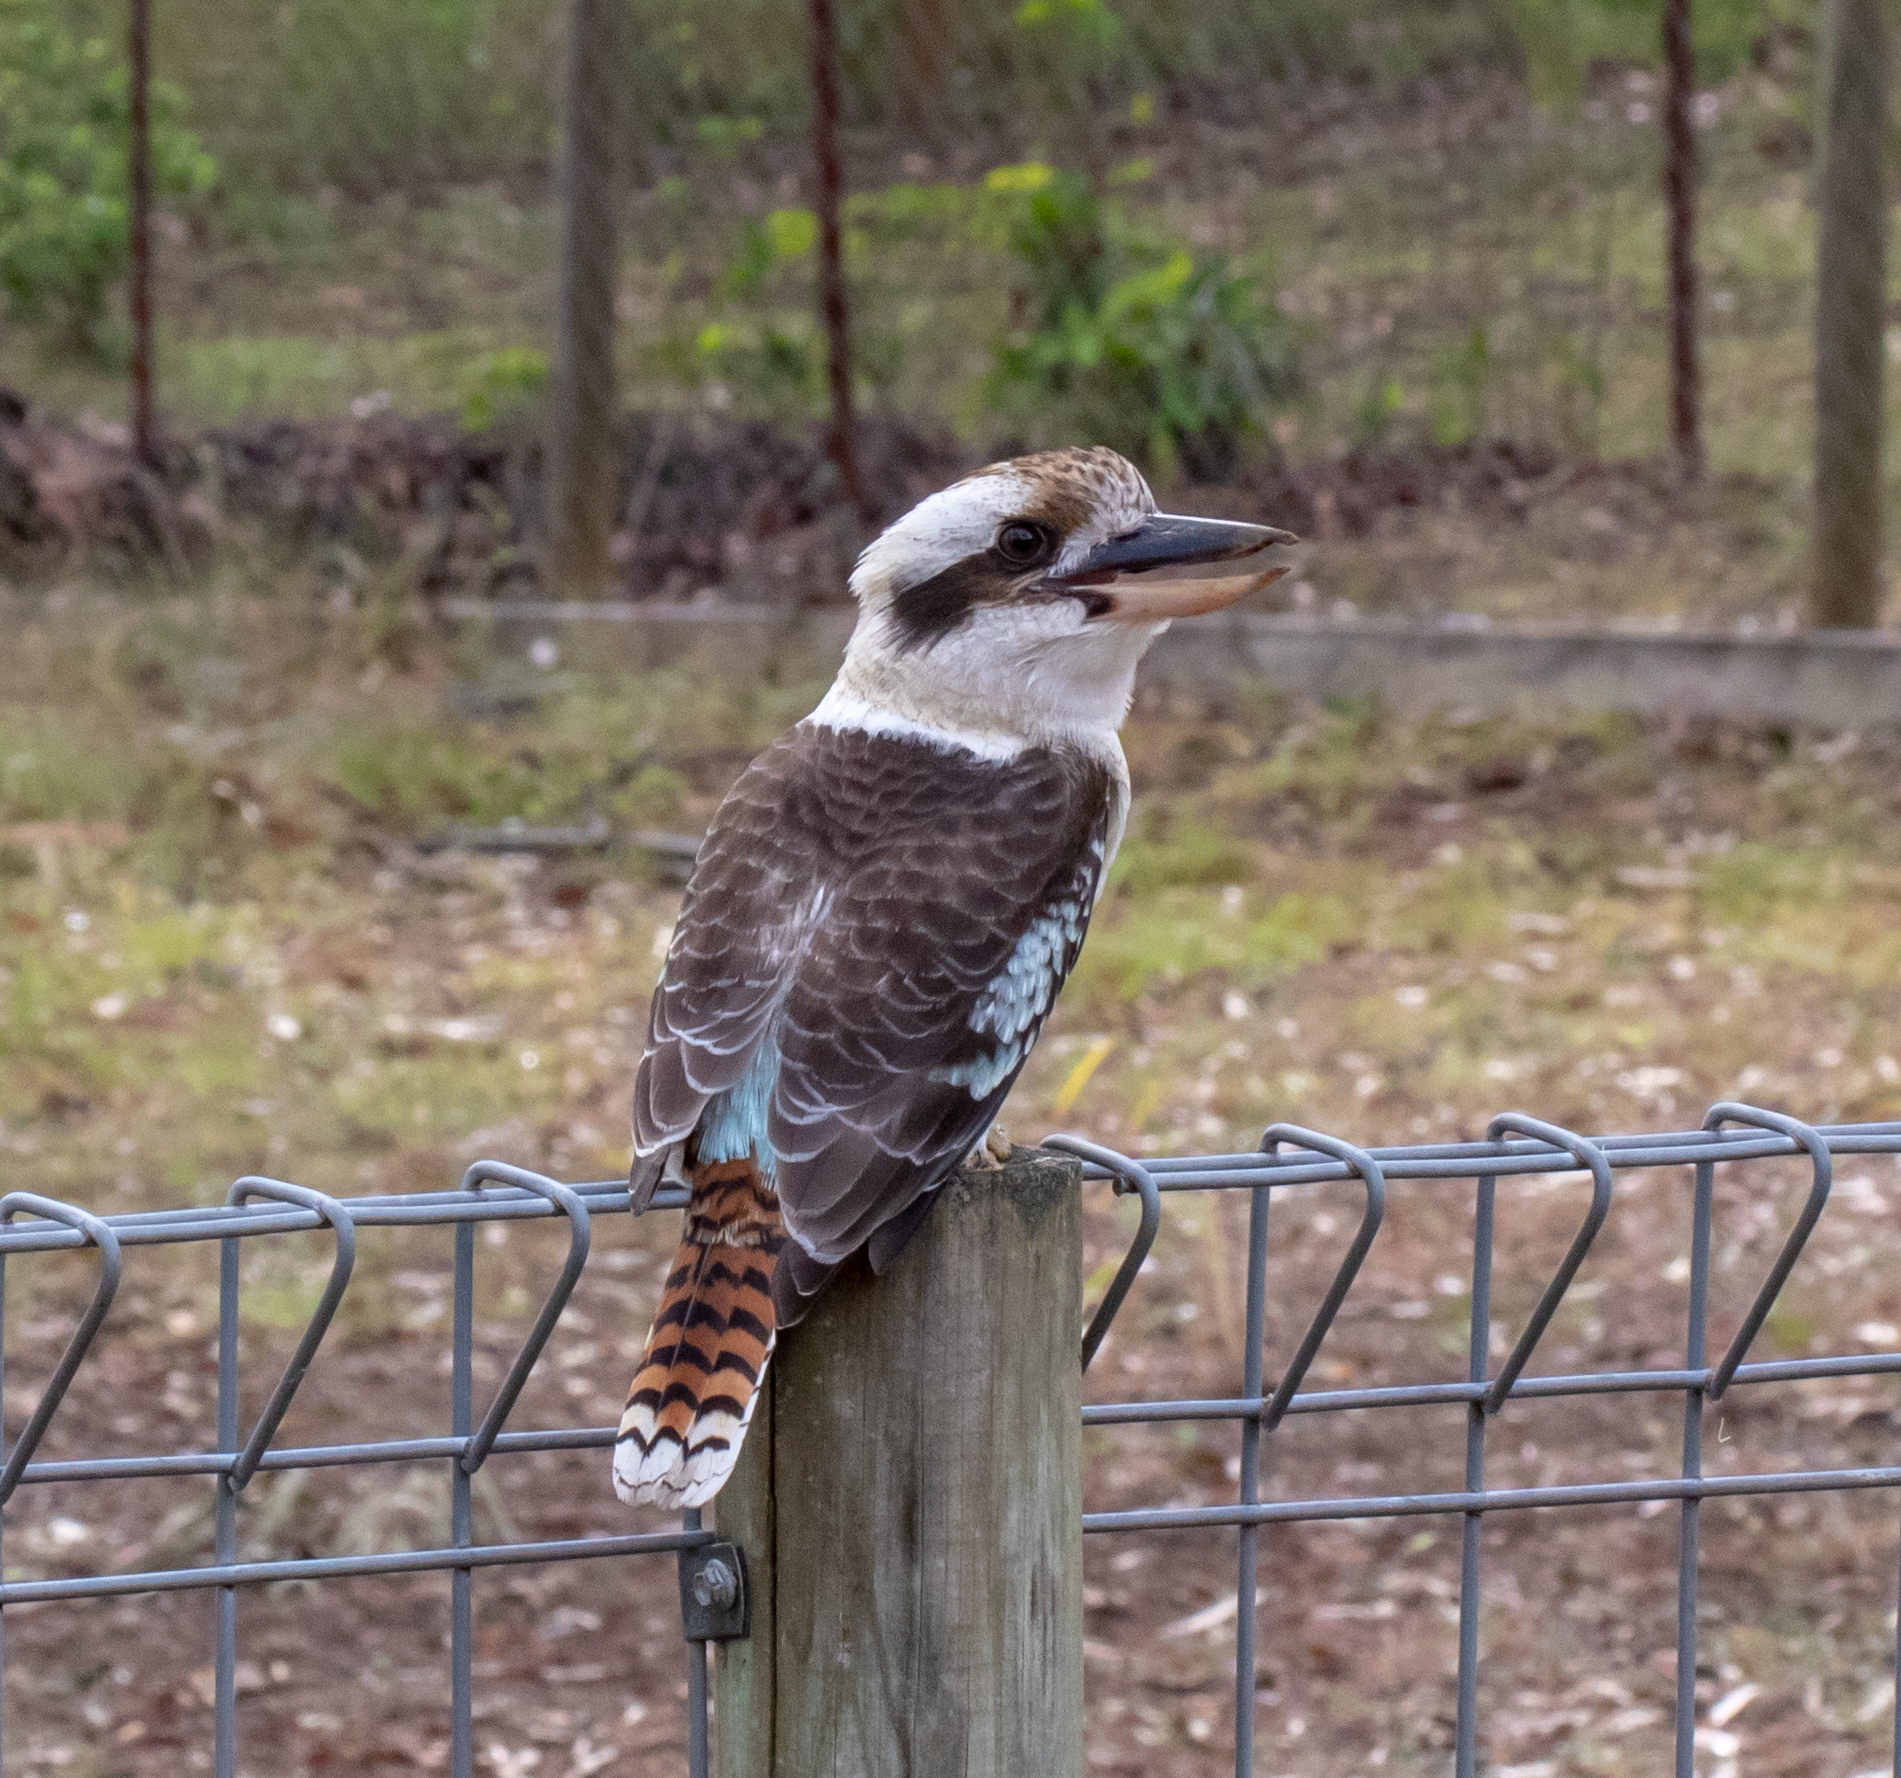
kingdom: Animalia
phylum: Chordata
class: Aves
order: Coraciiformes
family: Alcedinidae
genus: Dacelo
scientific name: Dacelo novaeguineae
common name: Laughing kookaburra
